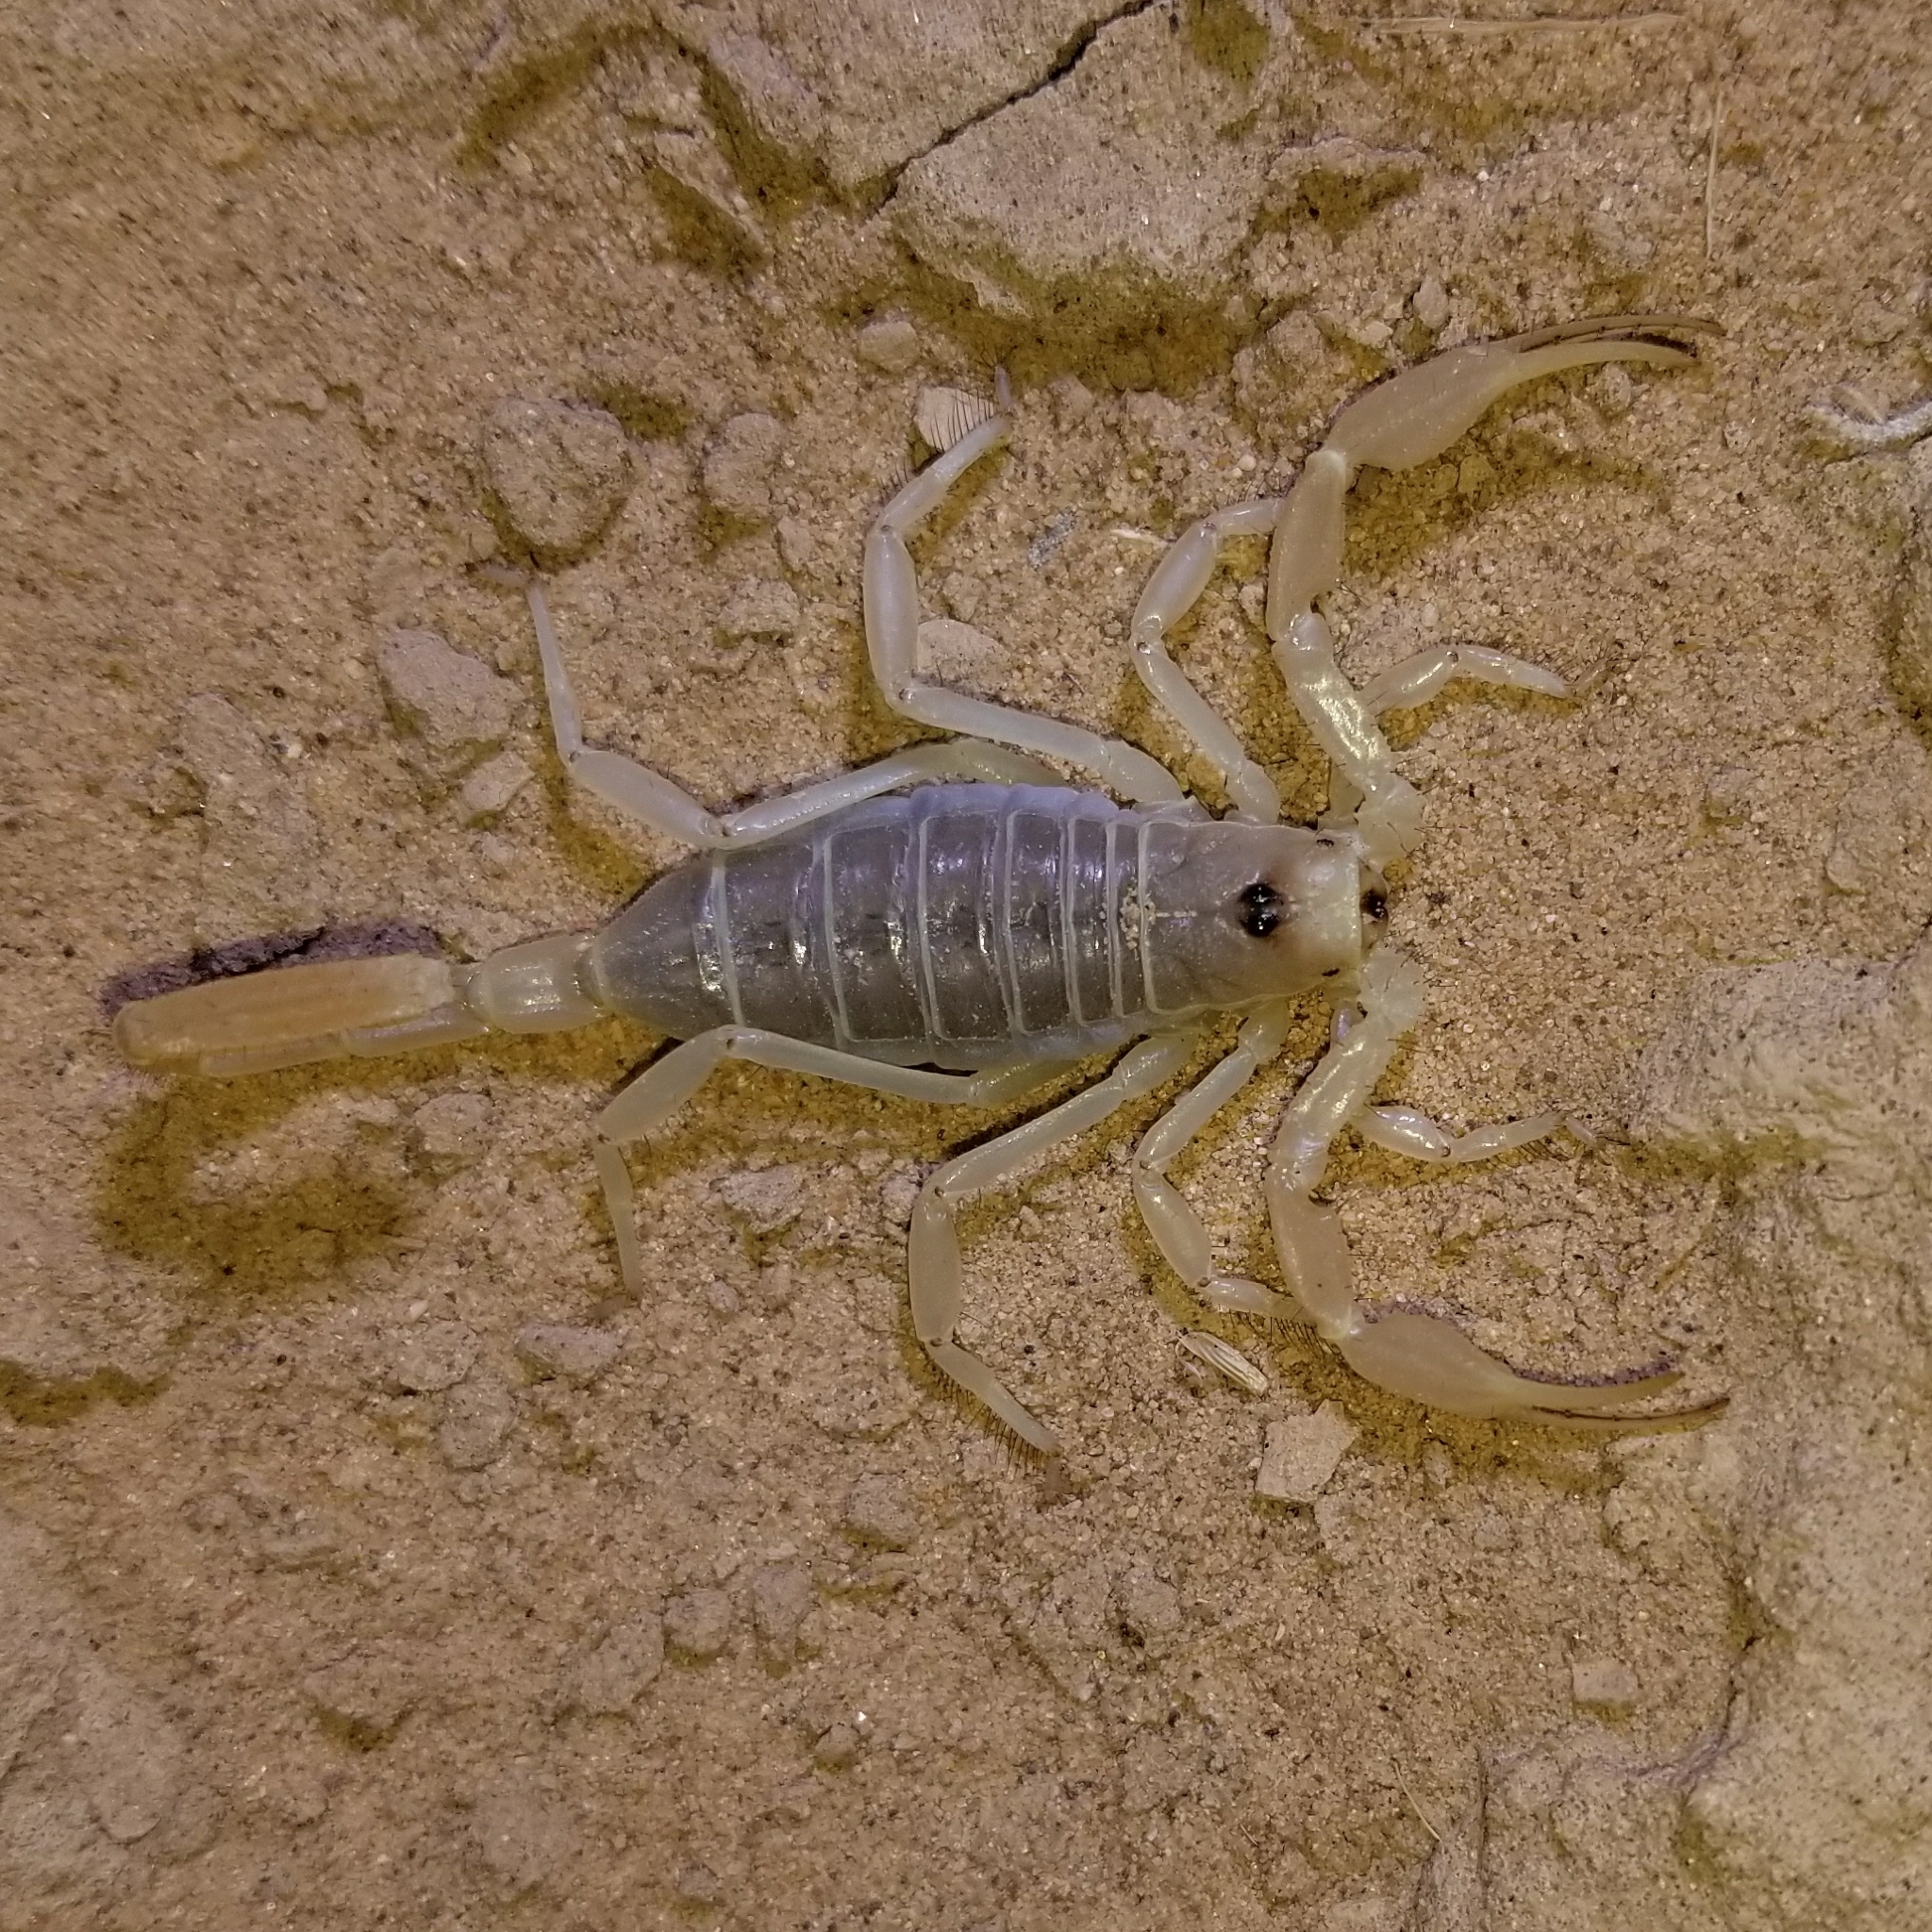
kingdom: Animalia
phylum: Arthropoda
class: Arachnida
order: Scorpiones
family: Vaejovidae
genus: Smeringurus
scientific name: Smeringurus mesaensis
